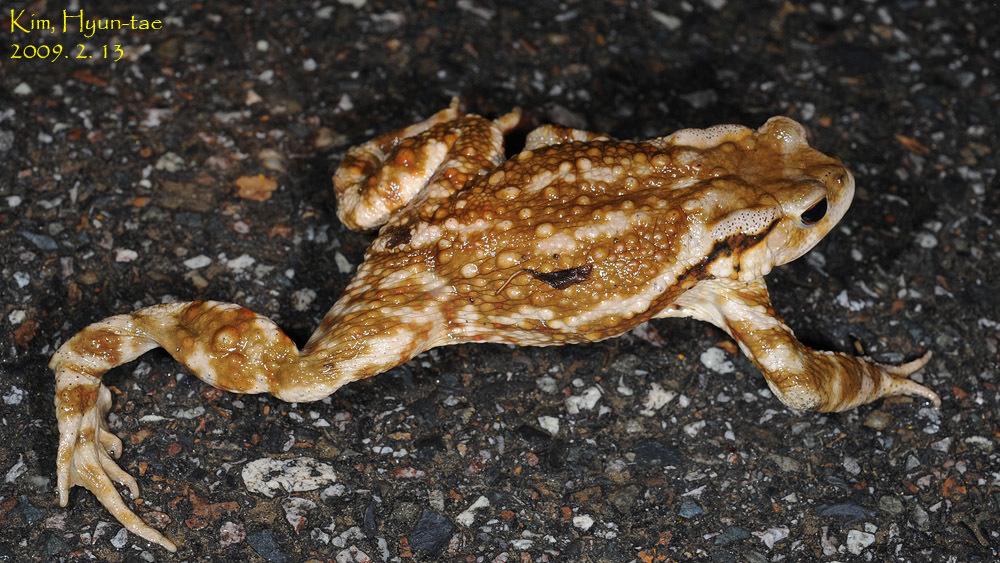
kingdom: Animalia
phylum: Chordata
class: Amphibia
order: Anura
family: Bufonidae
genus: Bufo
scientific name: Bufo gargarizans
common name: Asiatic toad
